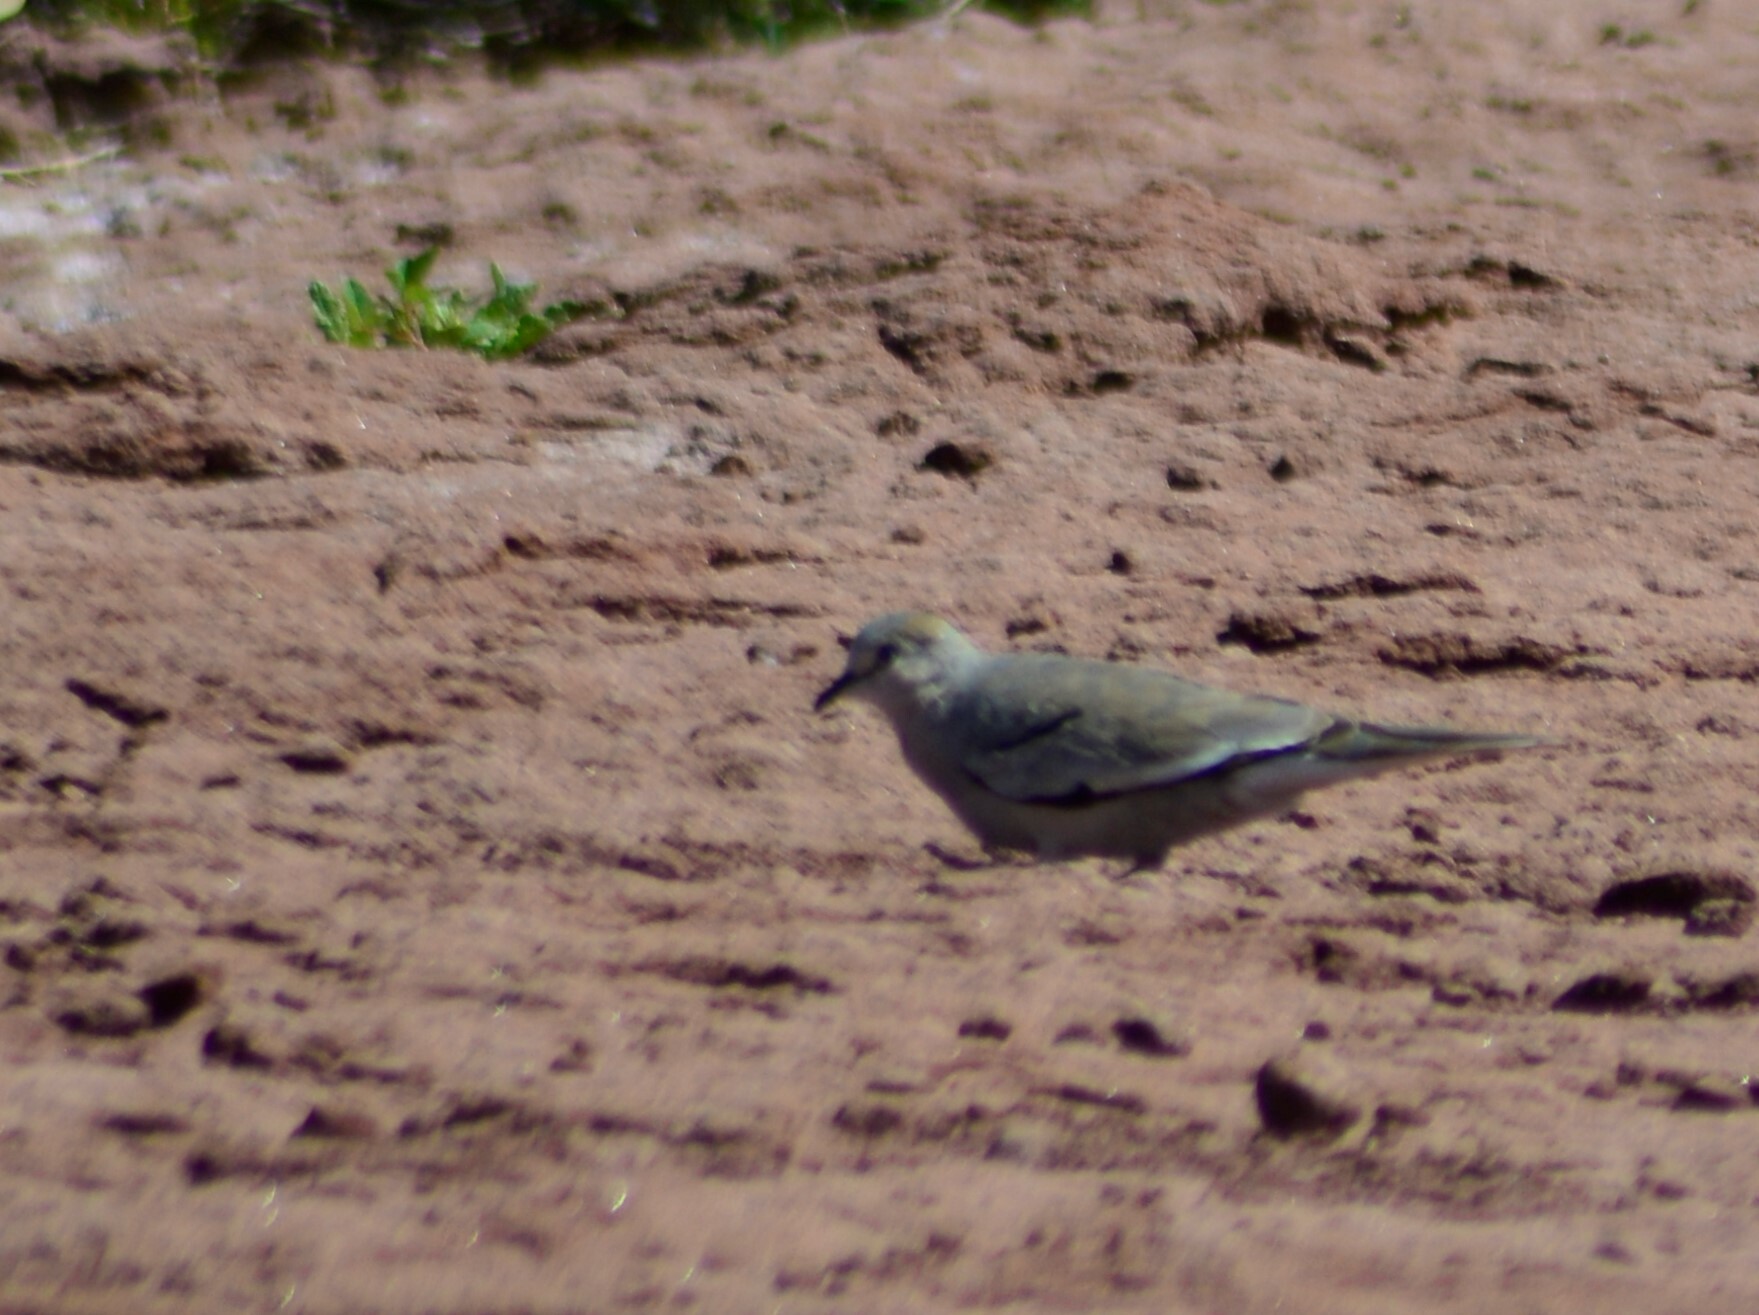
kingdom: Animalia
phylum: Chordata
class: Aves
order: Columbiformes
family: Columbidae
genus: Columbina
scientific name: Columbina picui
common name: Picui ground dove
